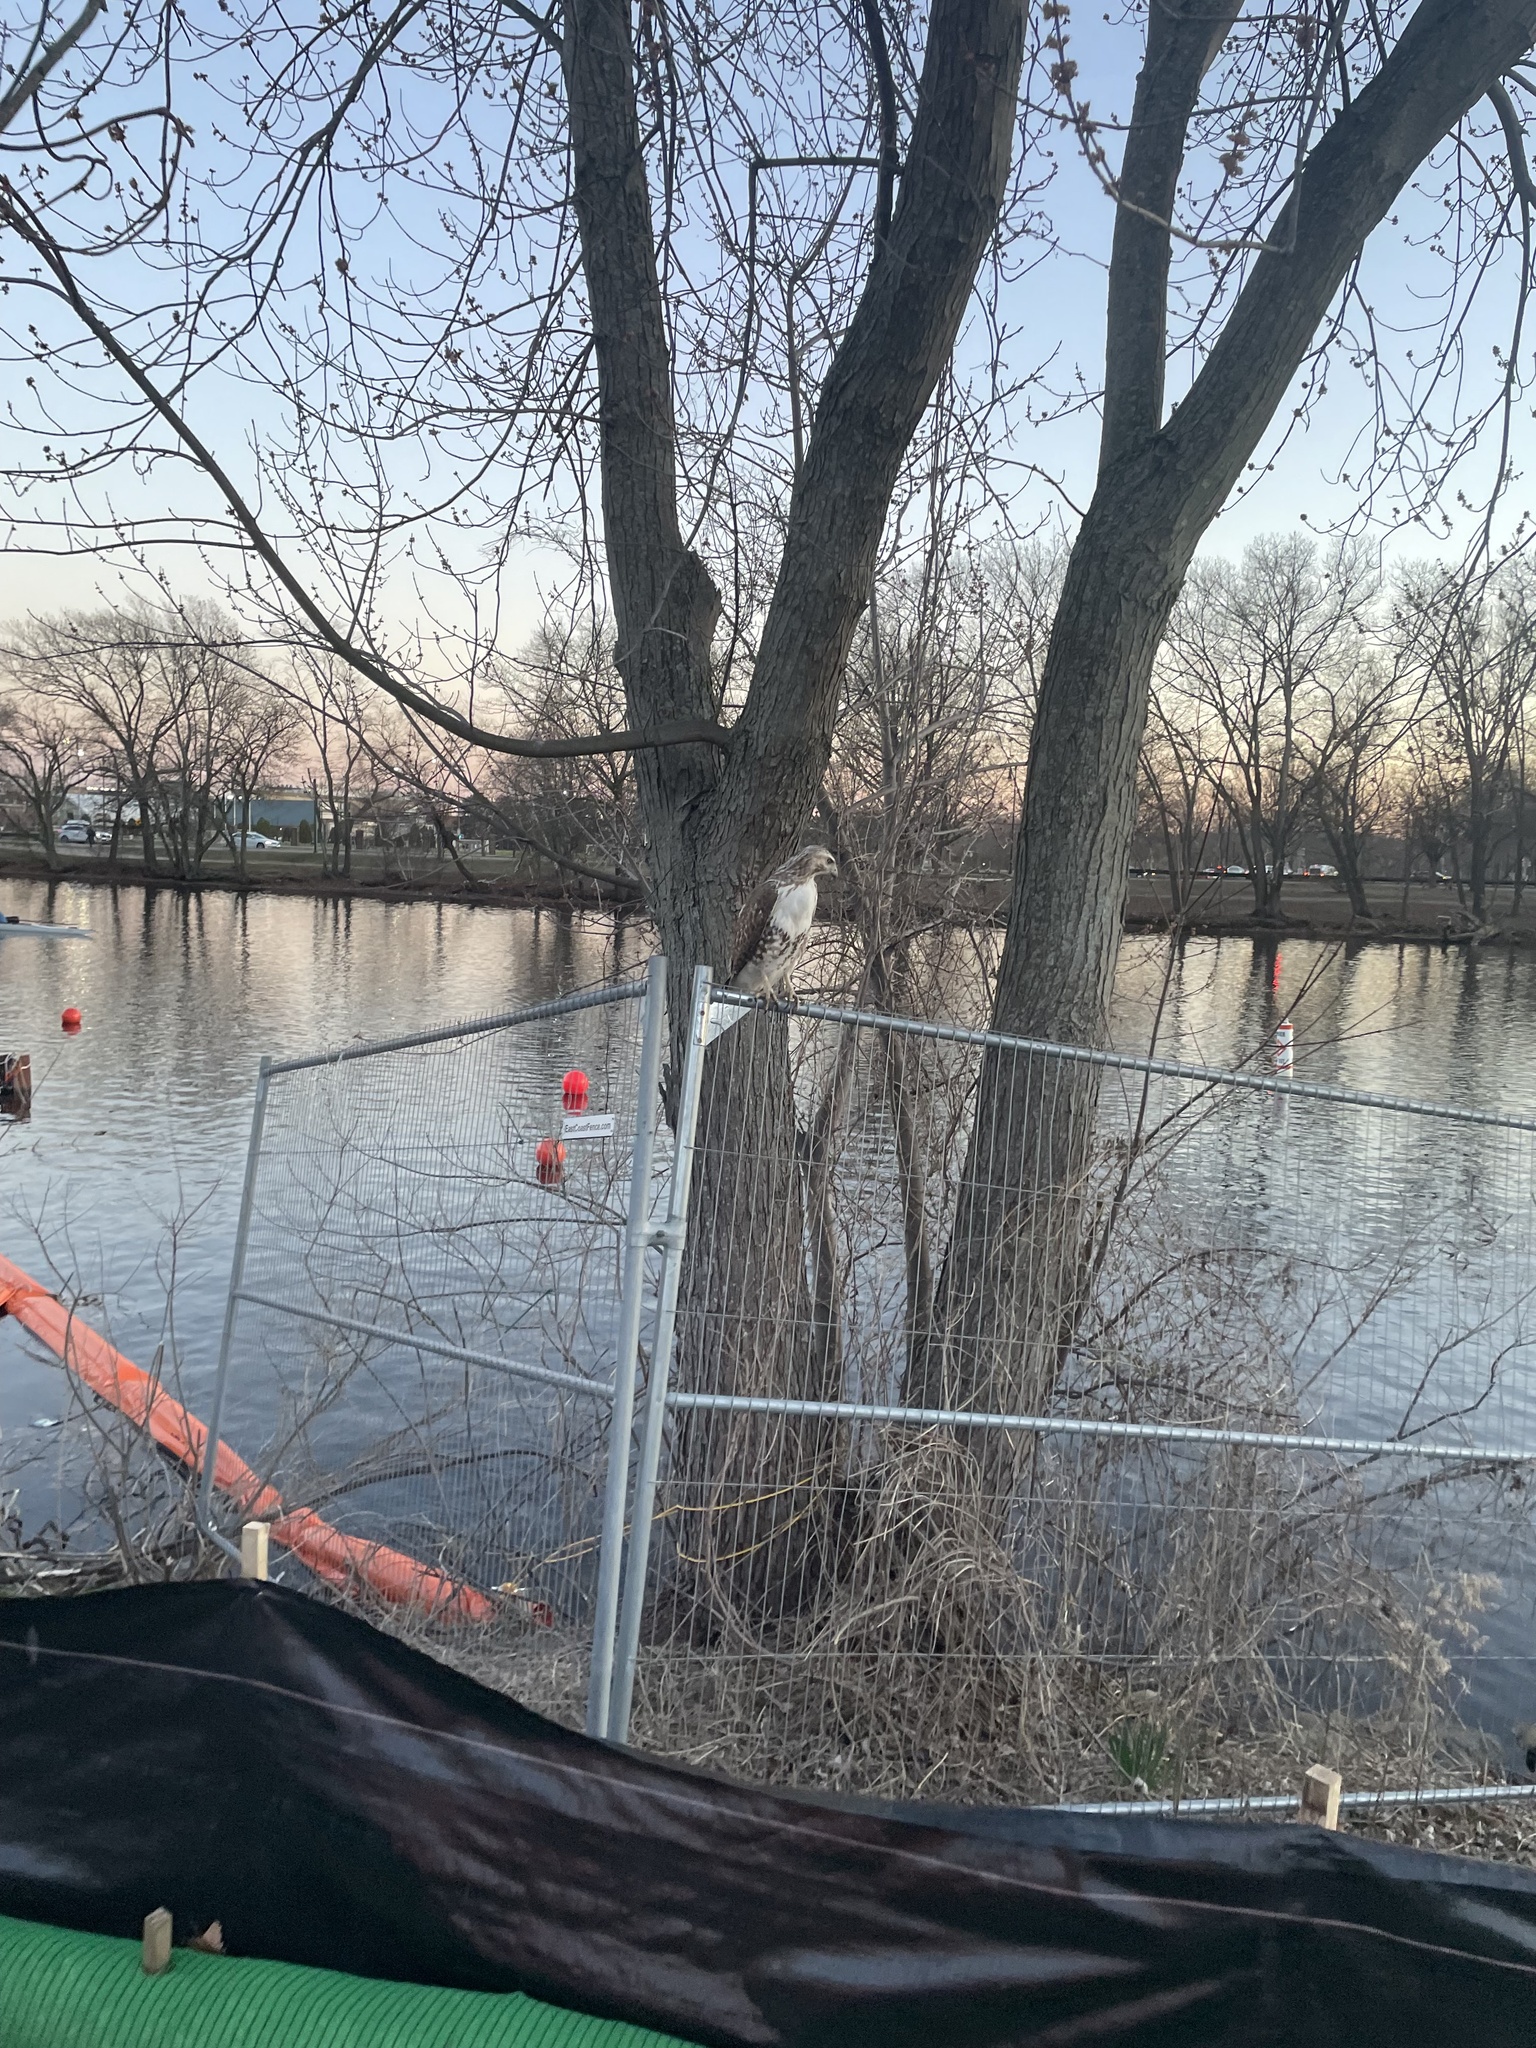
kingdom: Animalia
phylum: Chordata
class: Aves
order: Accipitriformes
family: Accipitridae
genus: Buteo
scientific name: Buteo jamaicensis
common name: Red-tailed hawk
